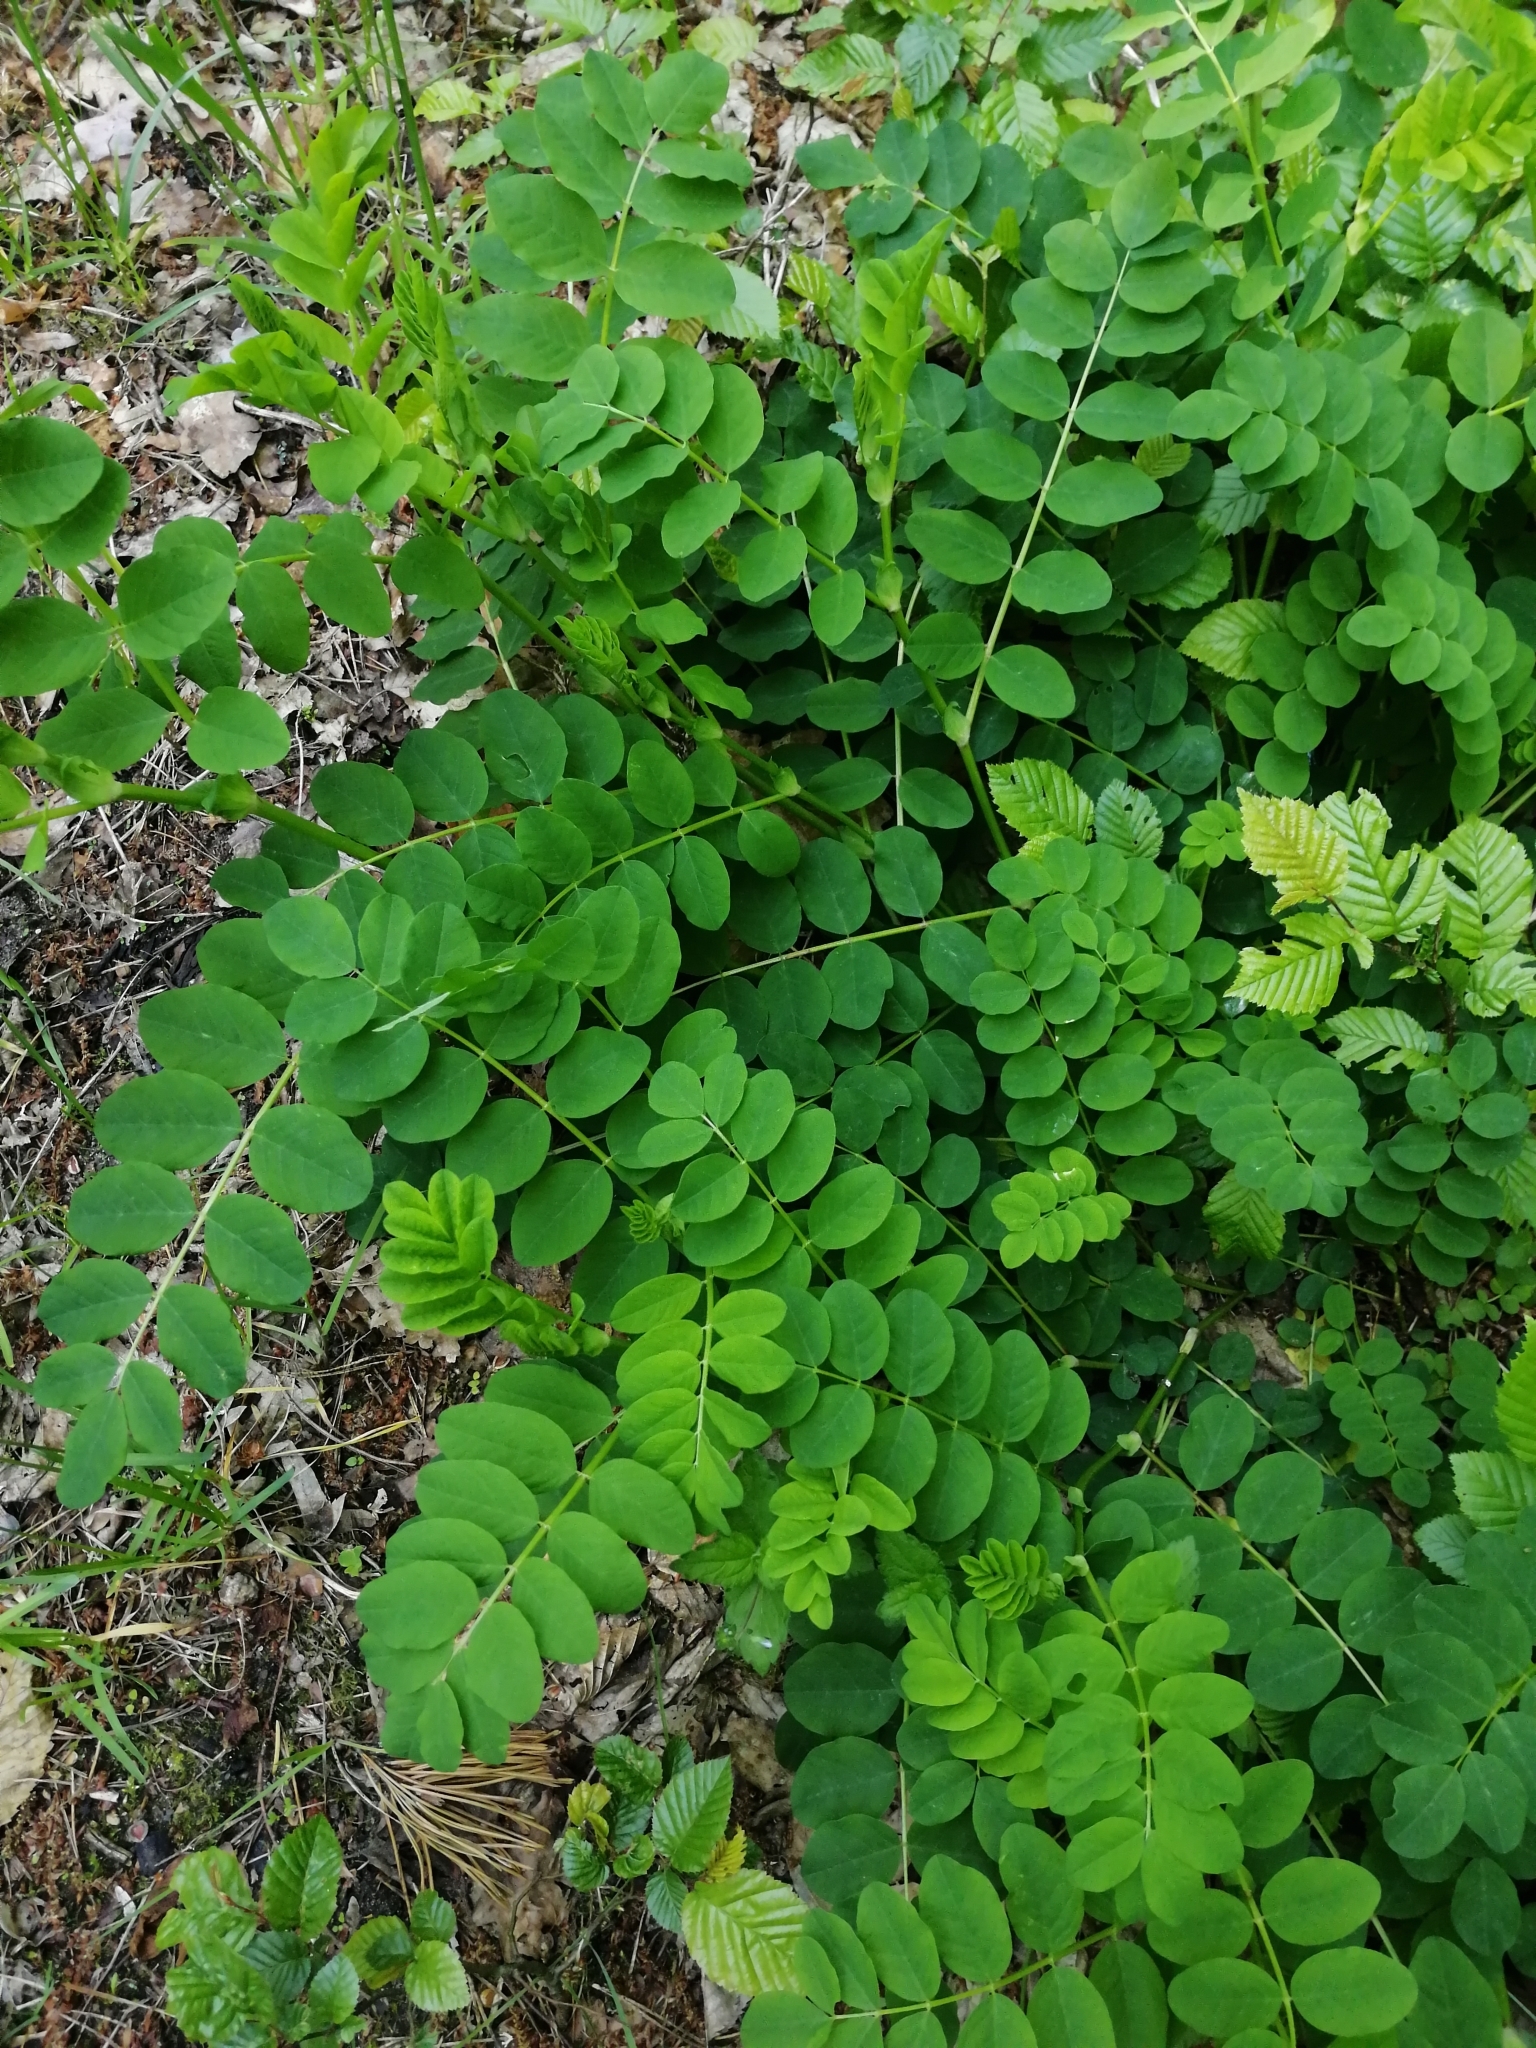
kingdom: Plantae
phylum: Tracheophyta
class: Magnoliopsida
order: Fabales
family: Fabaceae
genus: Astragalus
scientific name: Astragalus glycyphyllos
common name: Wild liquorice
